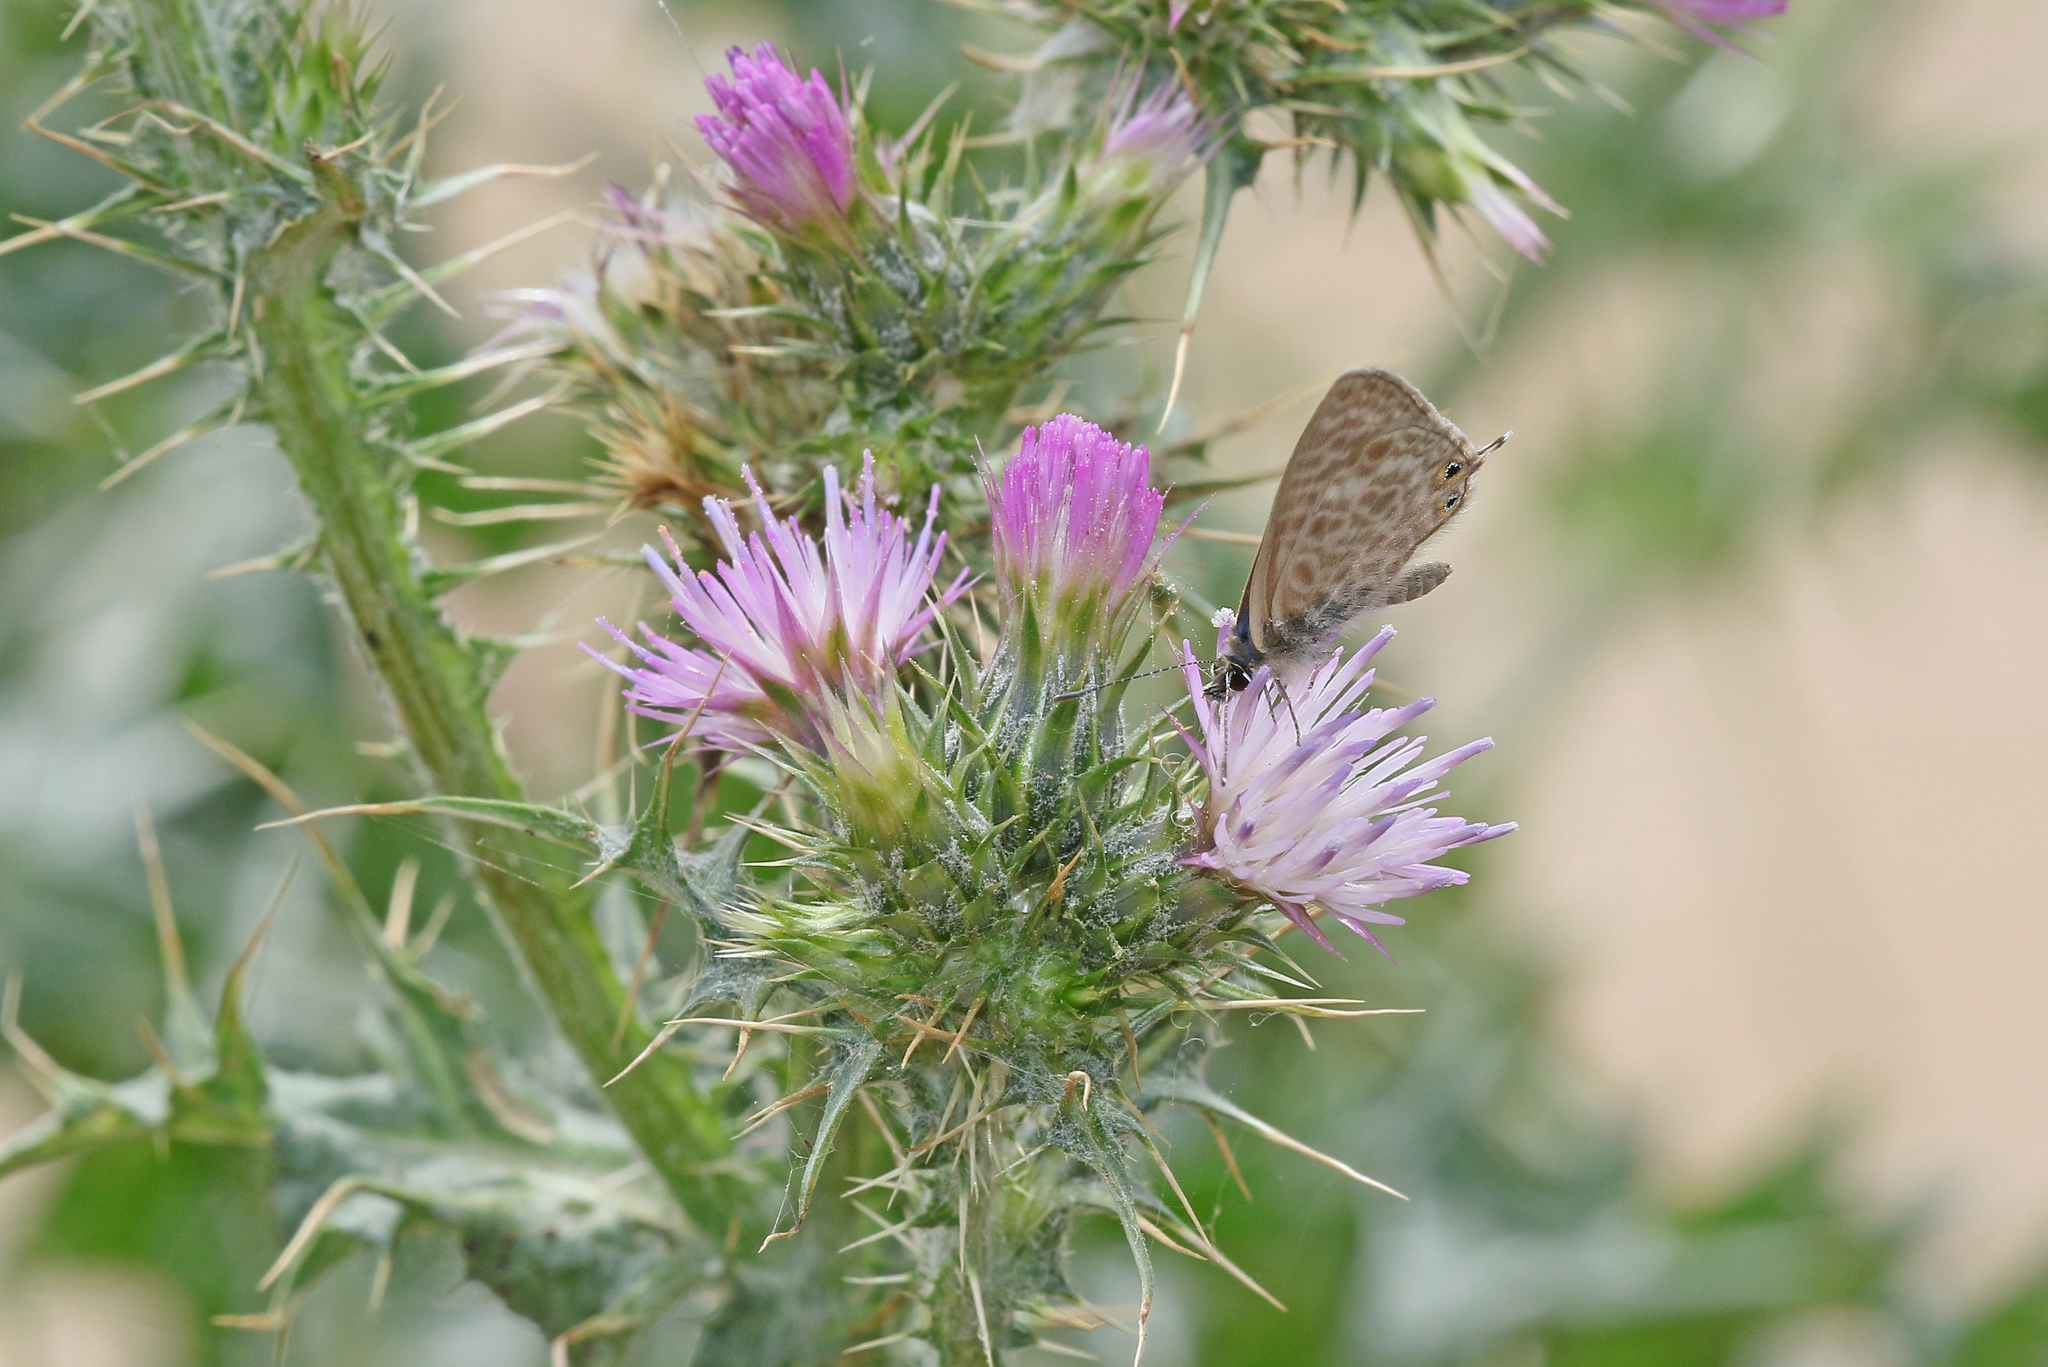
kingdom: Animalia
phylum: Arthropoda
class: Insecta
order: Lepidoptera
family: Lycaenidae
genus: Leptotes
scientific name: Leptotes pirithous
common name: Lang's short-tailed blue
